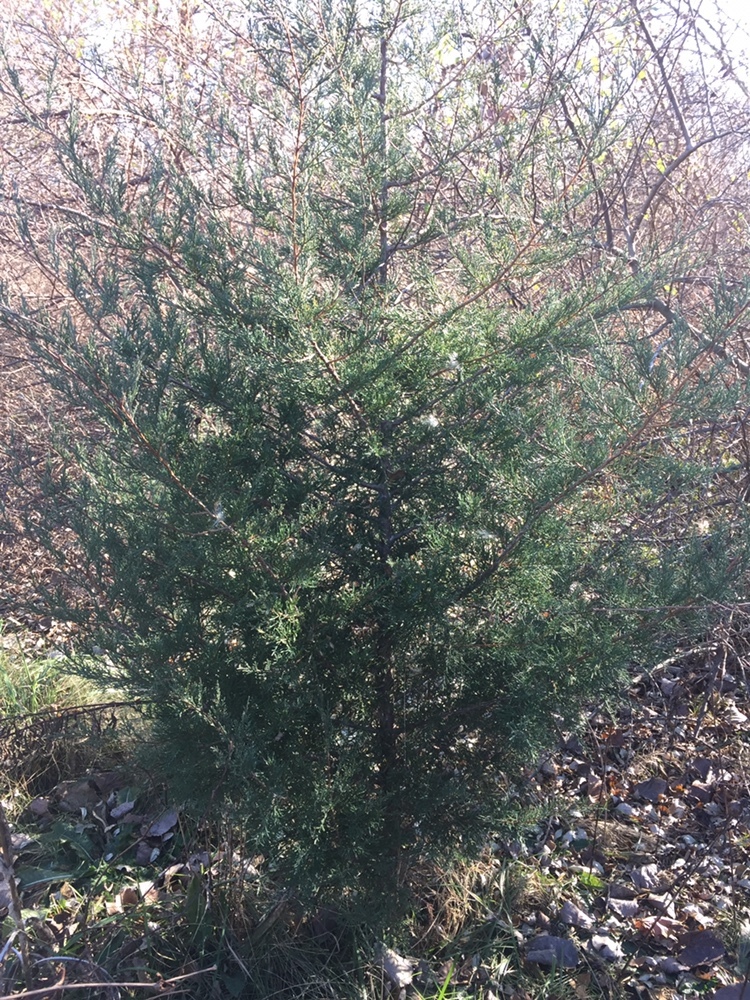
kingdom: Plantae
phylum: Tracheophyta
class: Pinopsida
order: Pinales
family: Cupressaceae
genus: Juniperus
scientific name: Juniperus virginiana
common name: Red juniper
